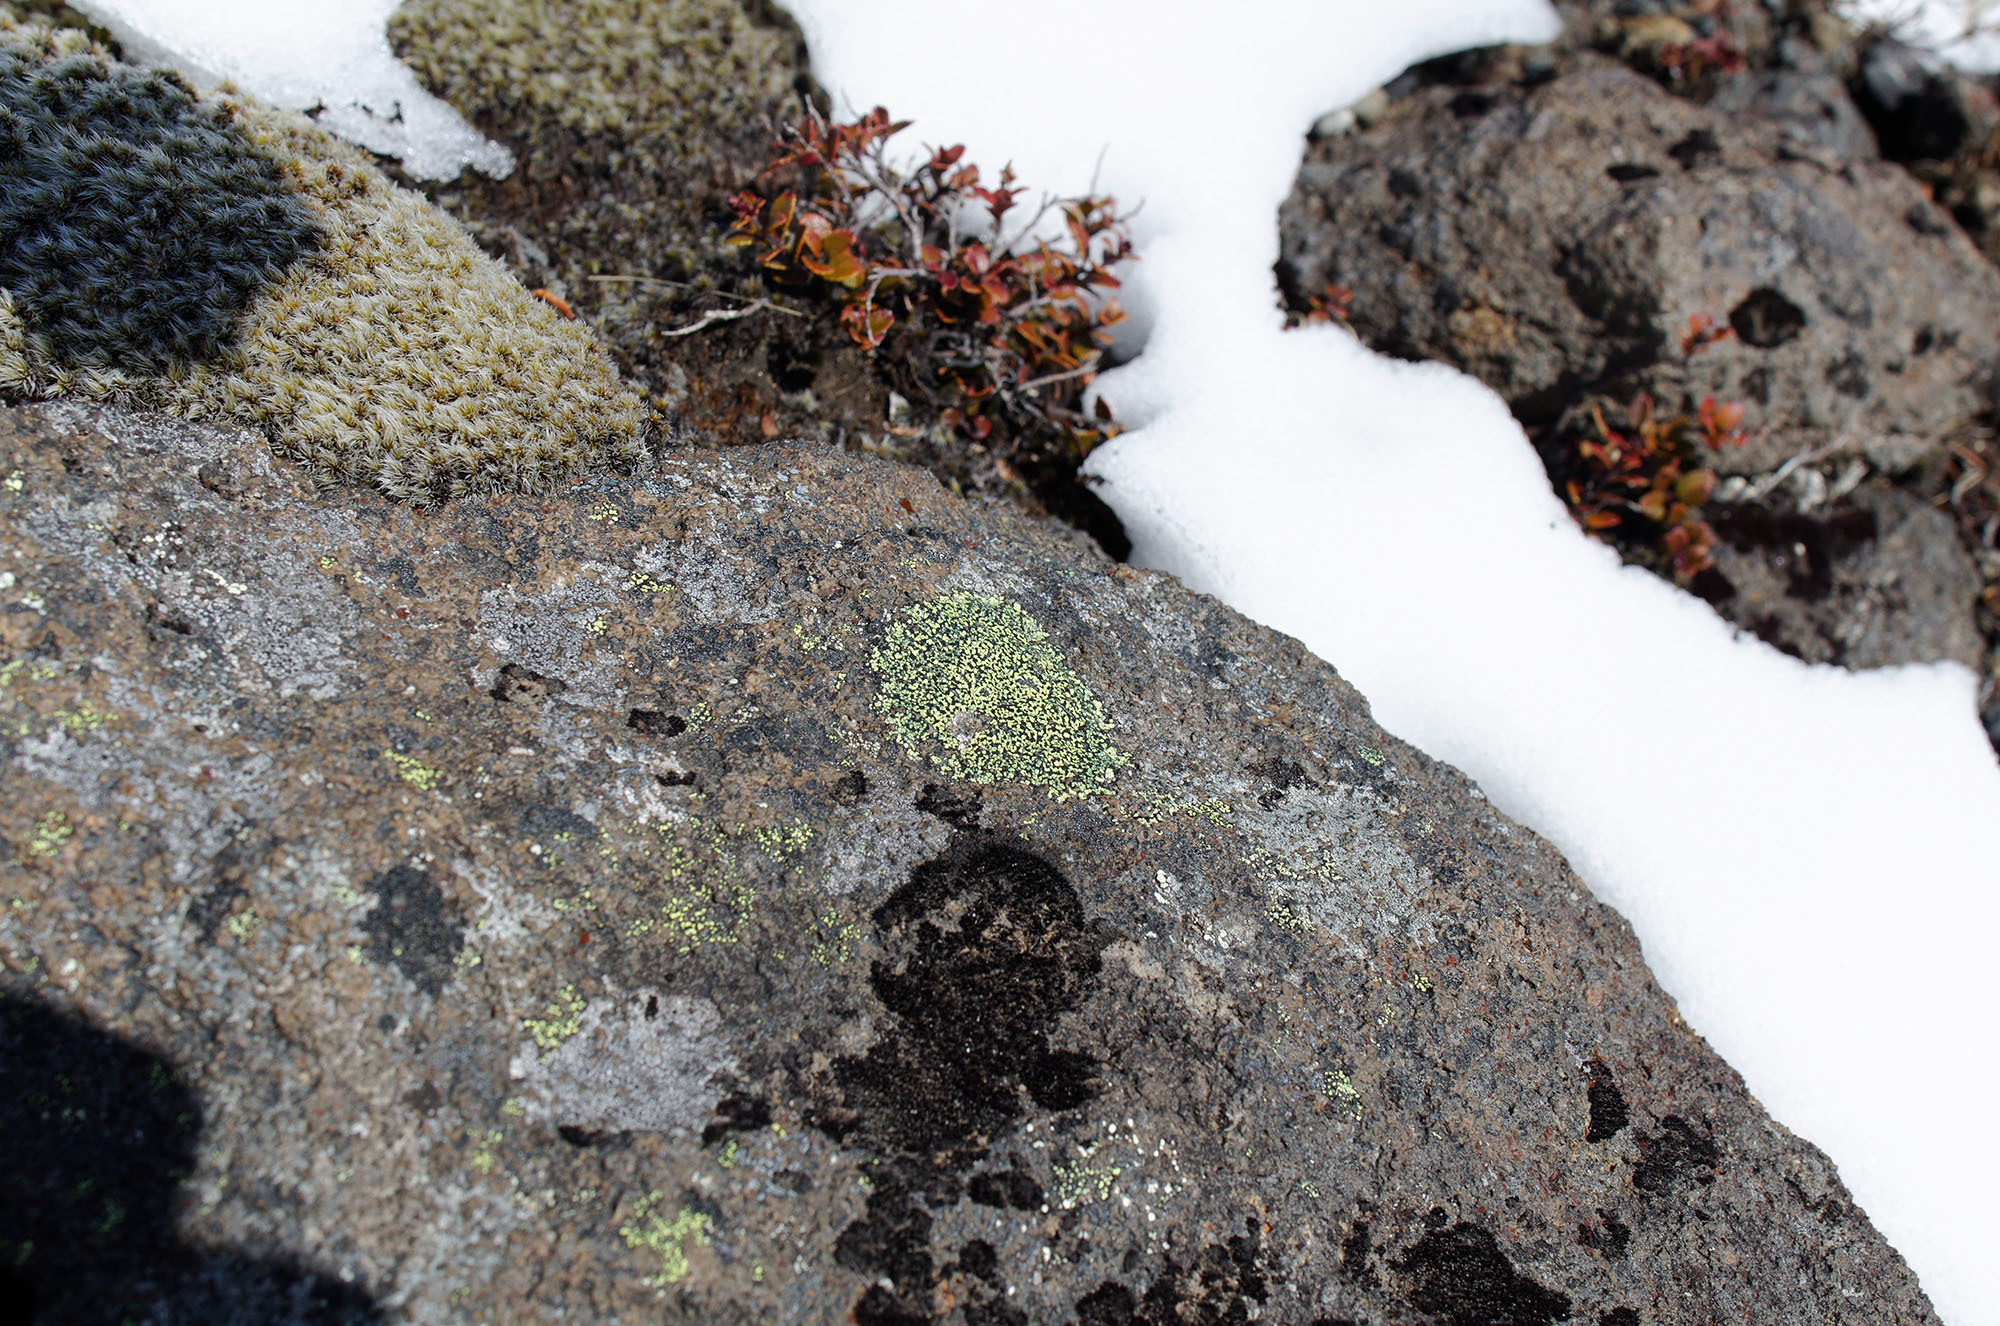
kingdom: Fungi
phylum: Ascomycota
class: Lecanoromycetes
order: Rhizocarpales
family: Rhizocarpaceae
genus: Rhizocarpon
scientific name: Rhizocarpon geographicum
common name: Yellow map lichen
